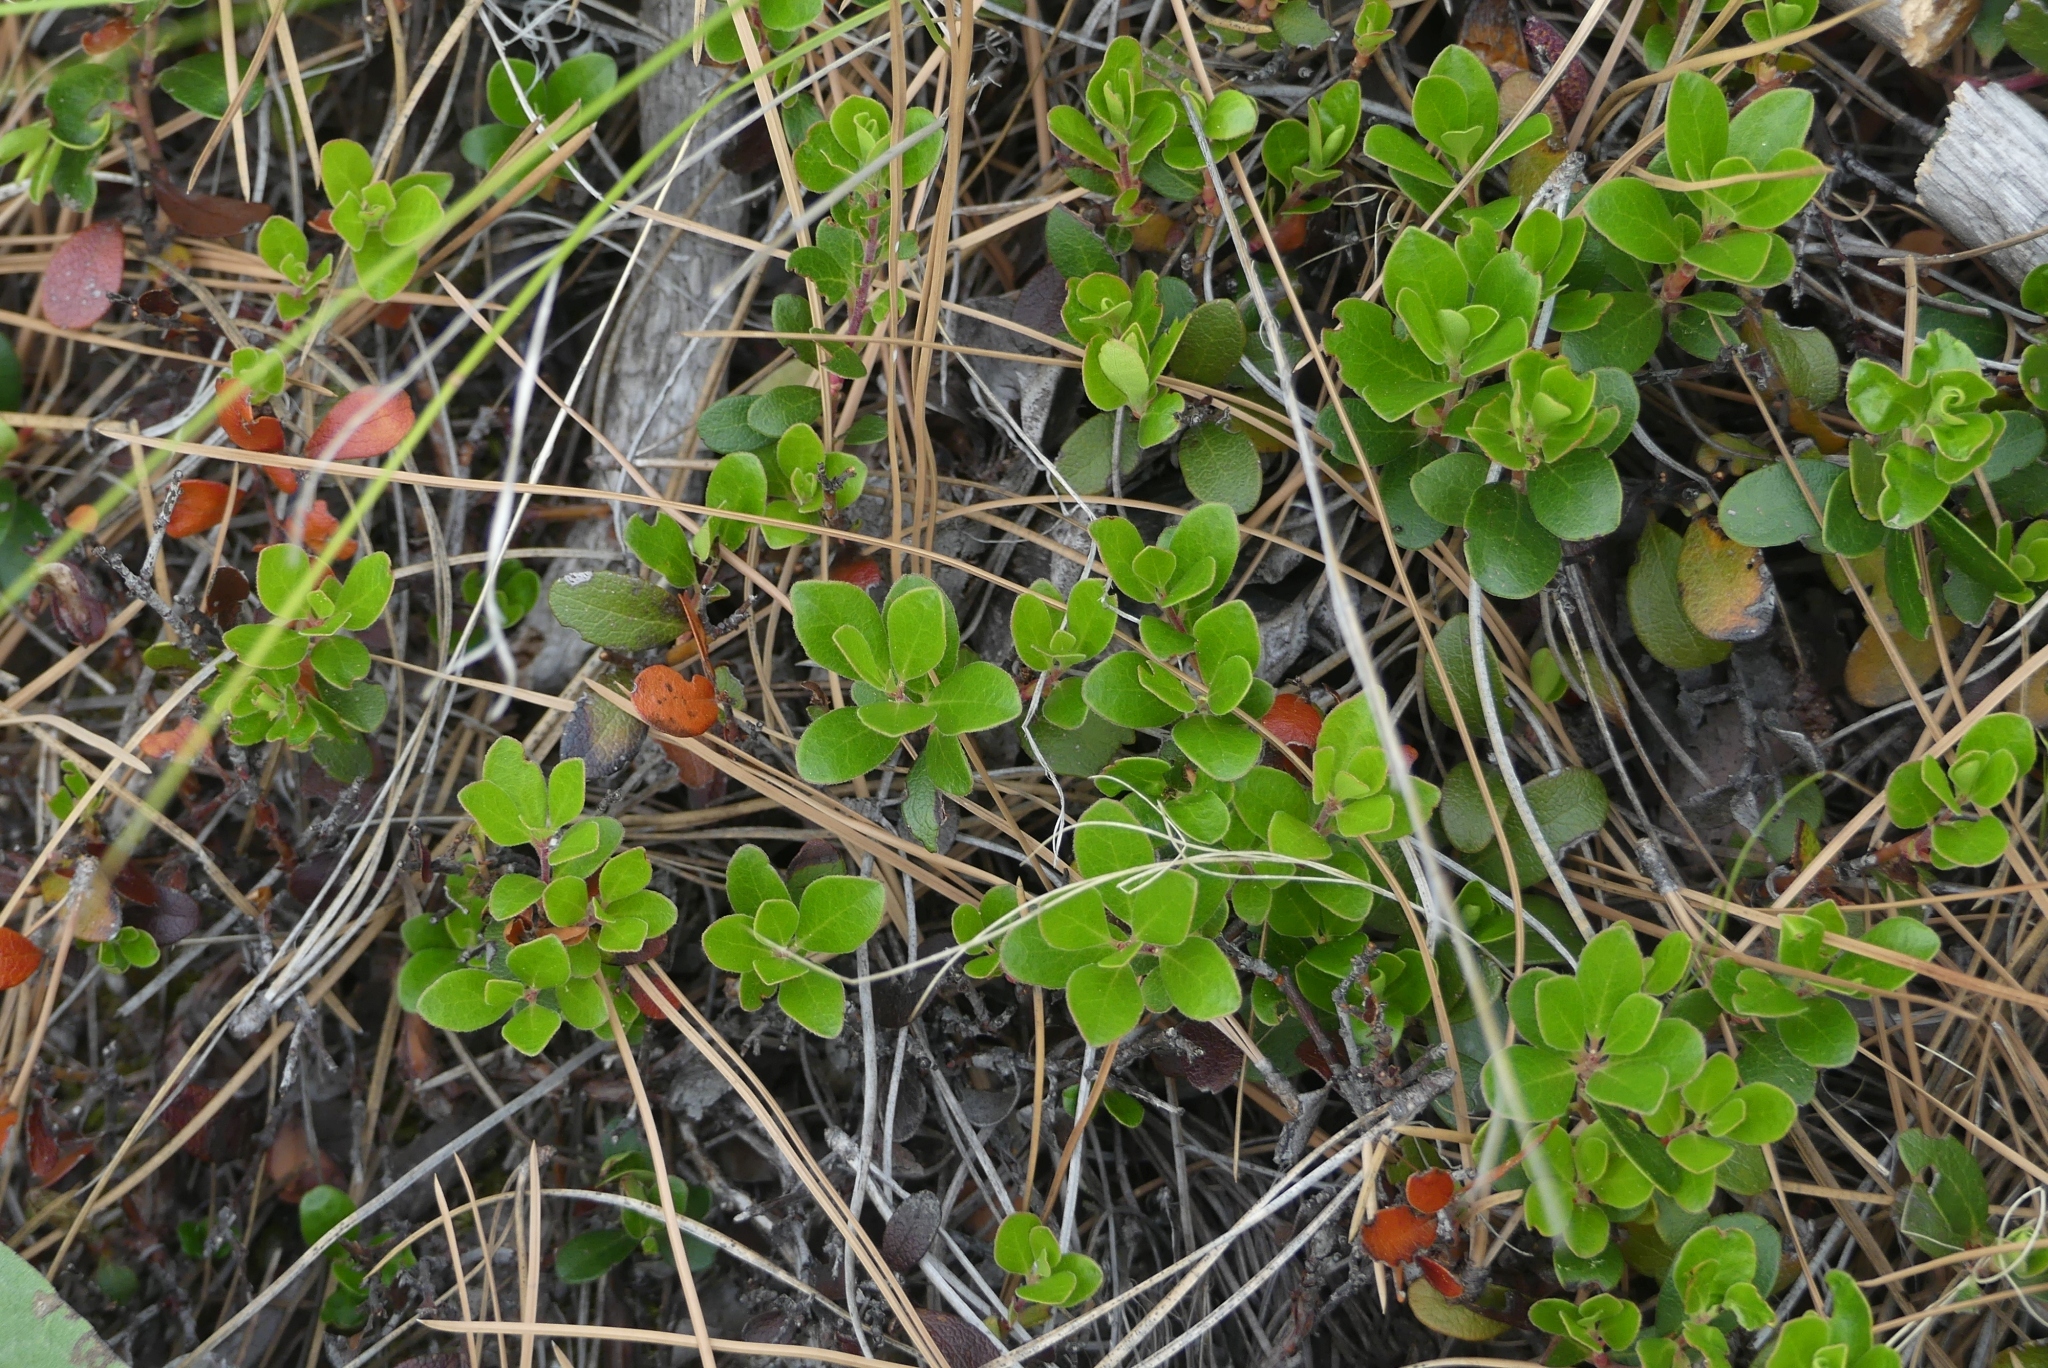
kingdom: Plantae
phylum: Tracheophyta
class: Magnoliopsida
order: Ericales
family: Ericaceae
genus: Arctostaphylos
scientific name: Arctostaphylos uva-ursi
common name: Bearberry
